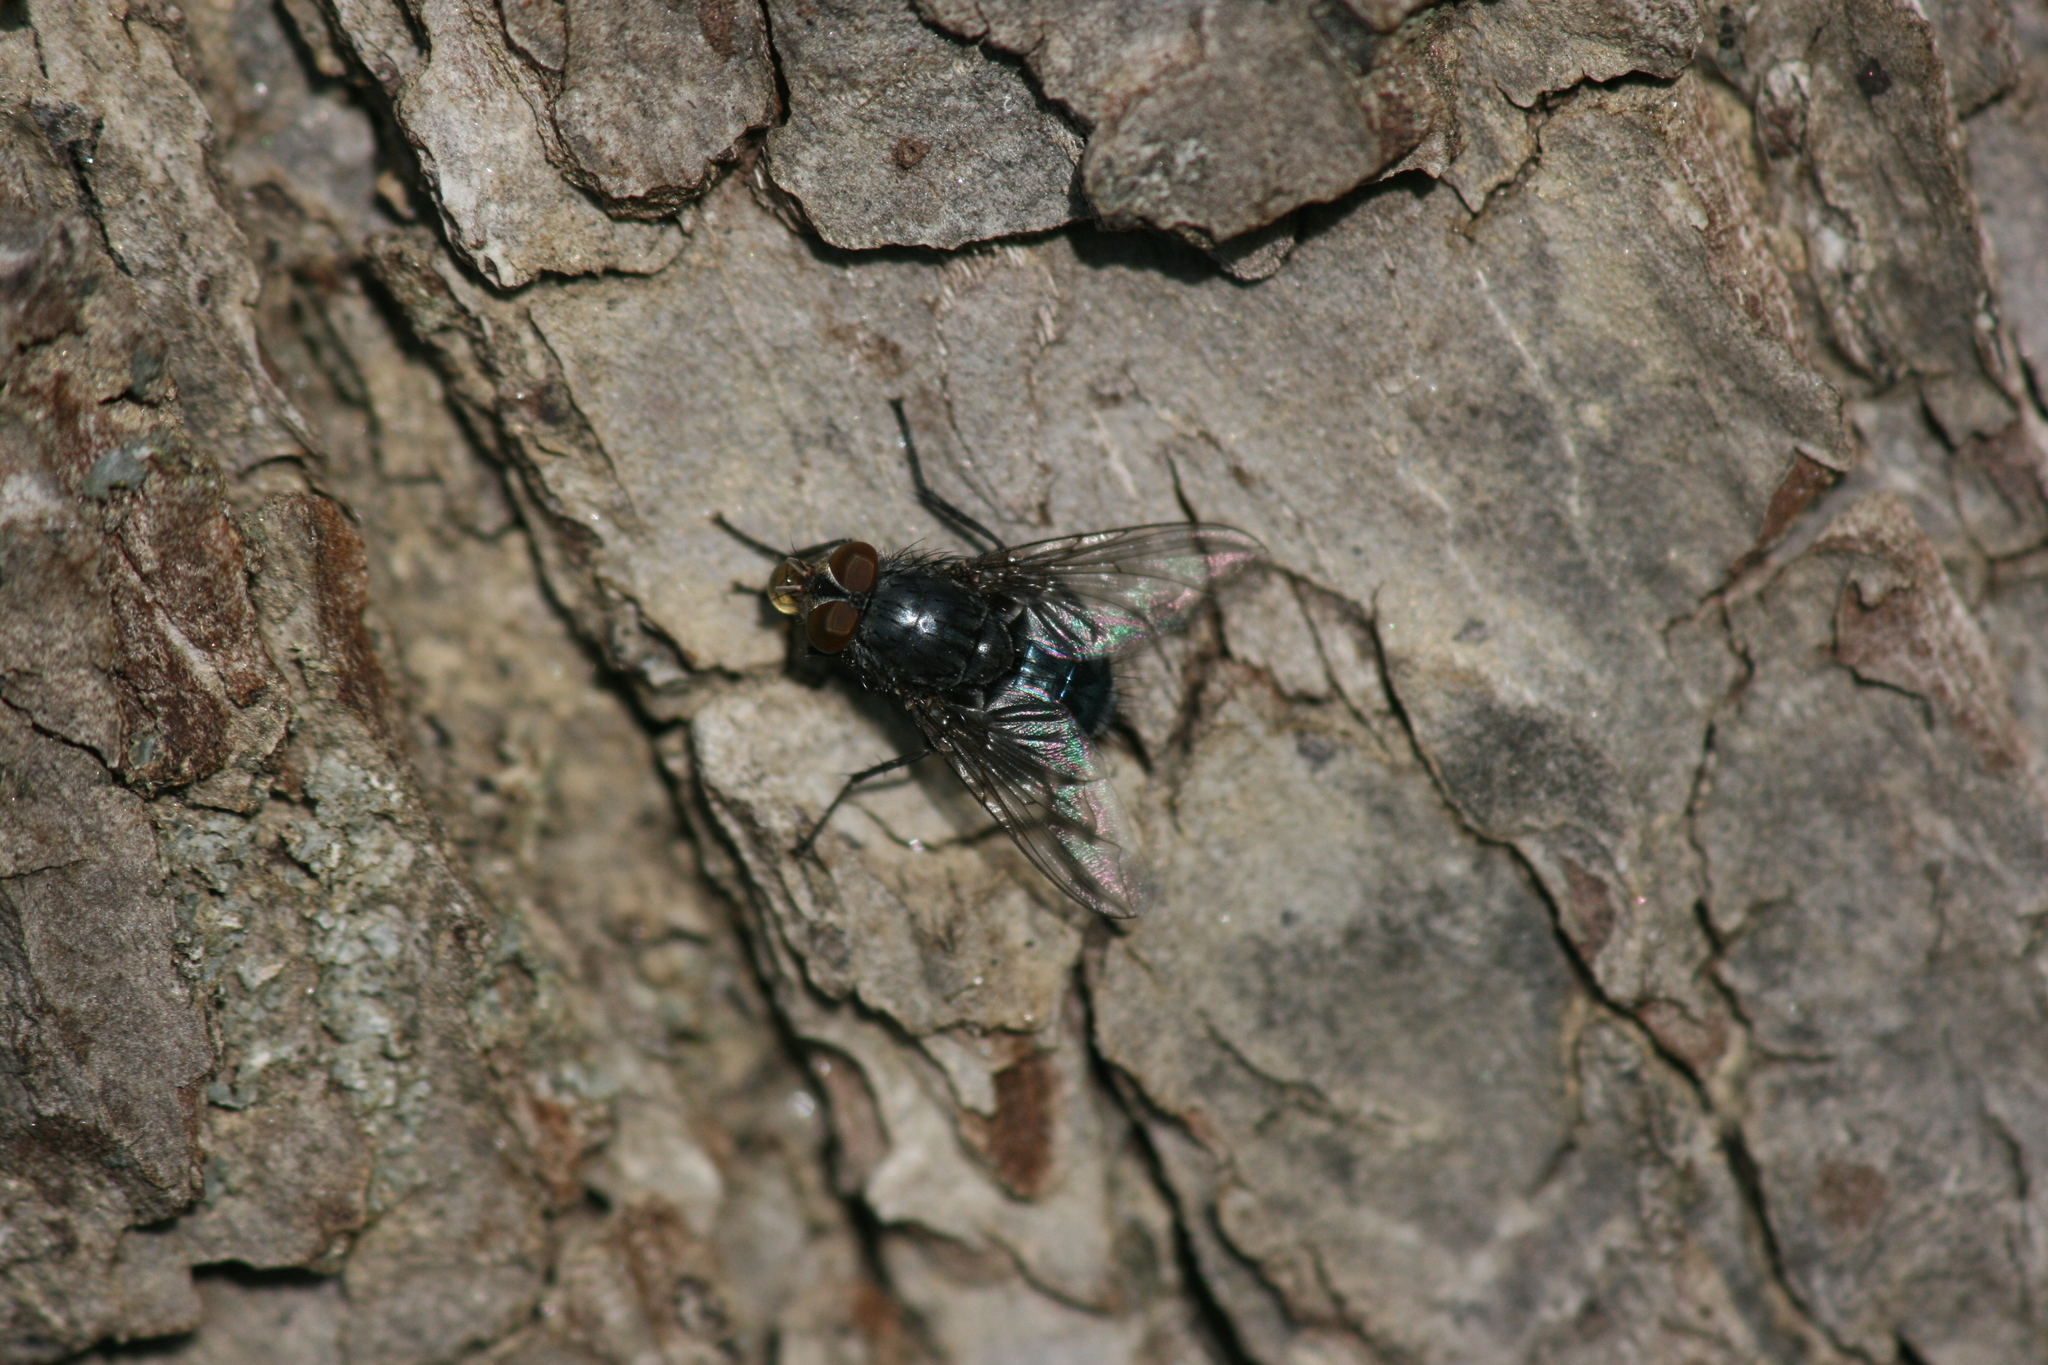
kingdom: Animalia
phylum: Arthropoda
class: Insecta
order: Diptera
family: Calliphoridae
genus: Calliphora
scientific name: Calliphora vicina
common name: Common blow flie
